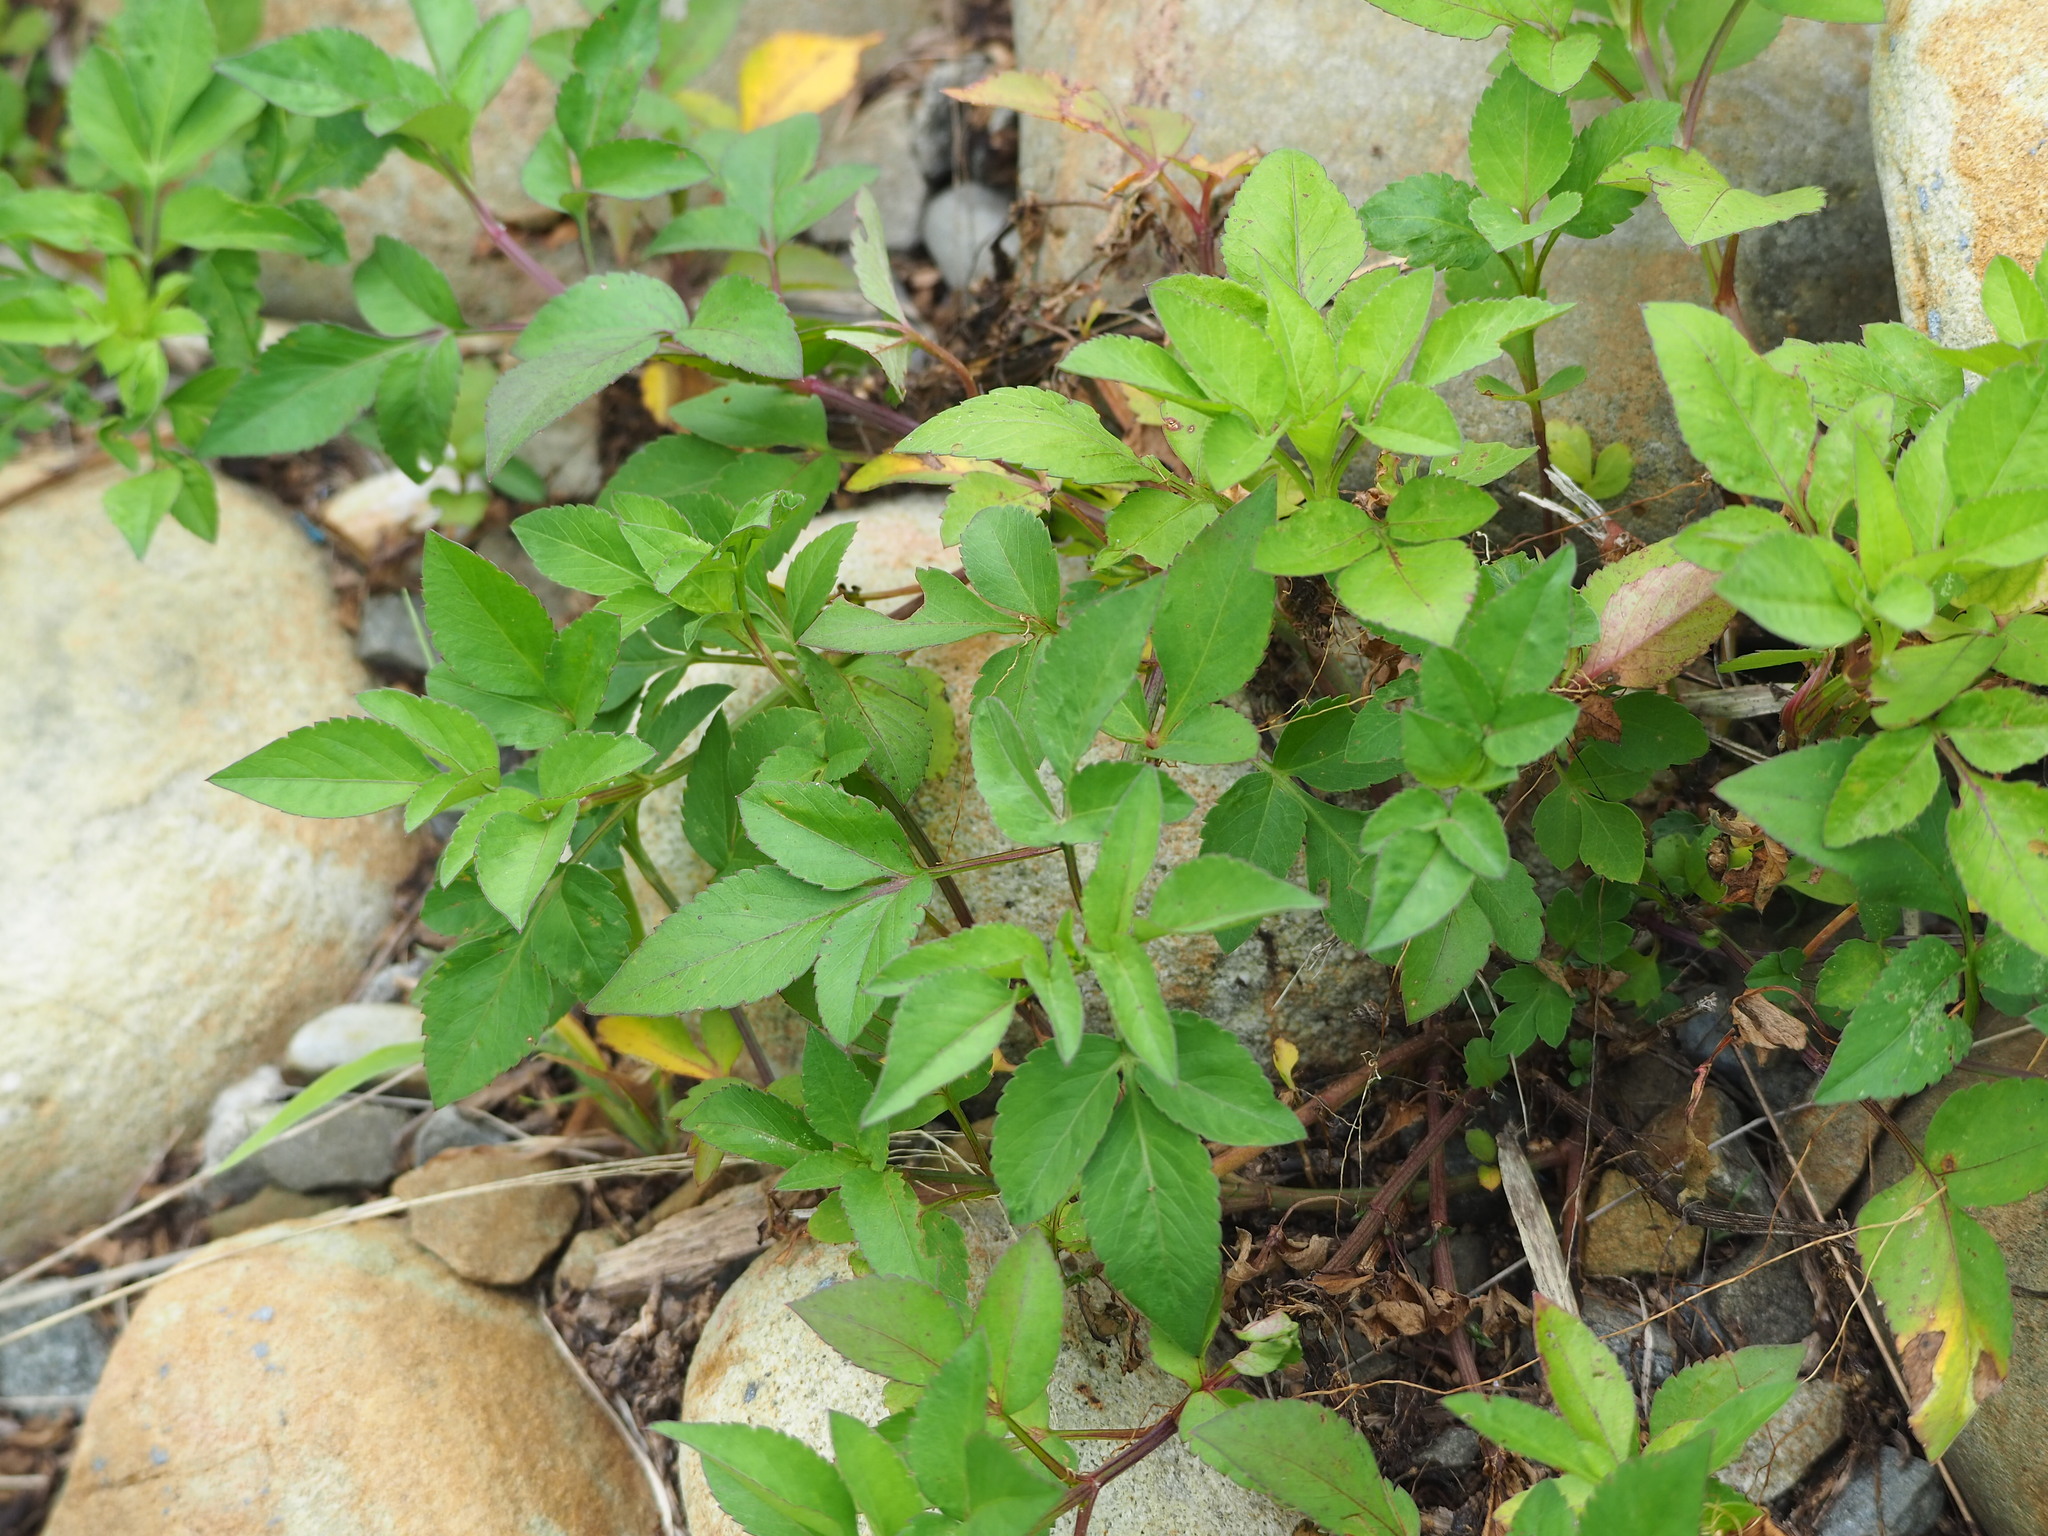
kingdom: Plantae
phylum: Tracheophyta
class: Magnoliopsida
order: Asterales
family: Asteraceae
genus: Bidens
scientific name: Bidens alba
